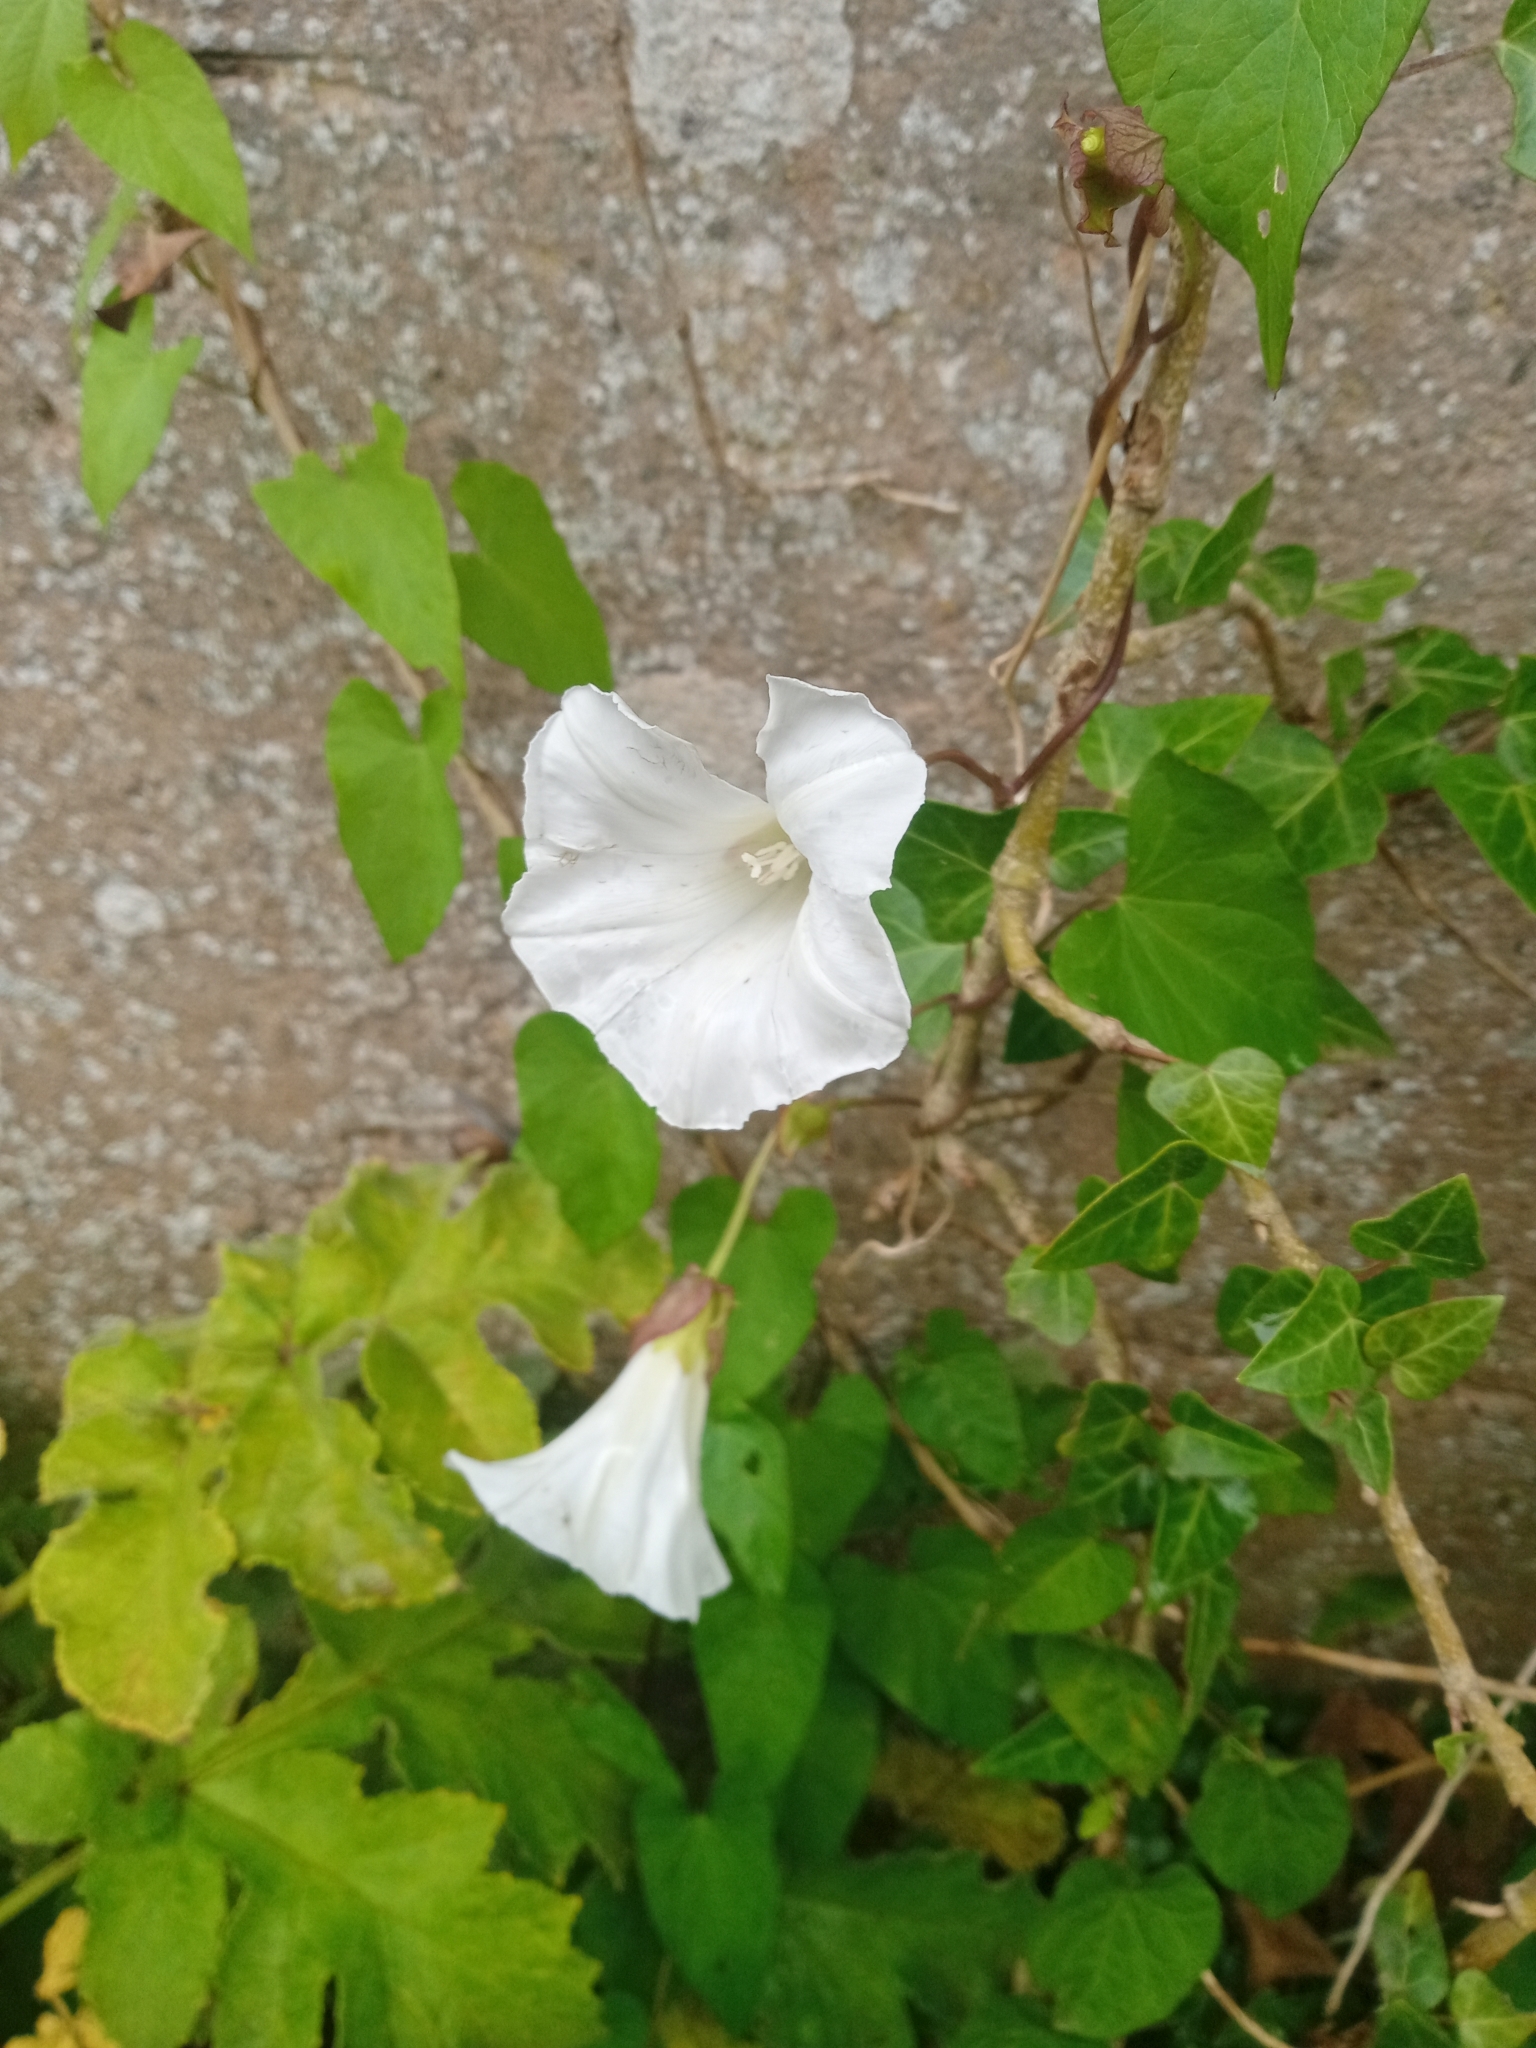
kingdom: Plantae
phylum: Tracheophyta
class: Magnoliopsida
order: Solanales
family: Convolvulaceae
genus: Calystegia
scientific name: Calystegia sepium
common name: Hedge bindweed
